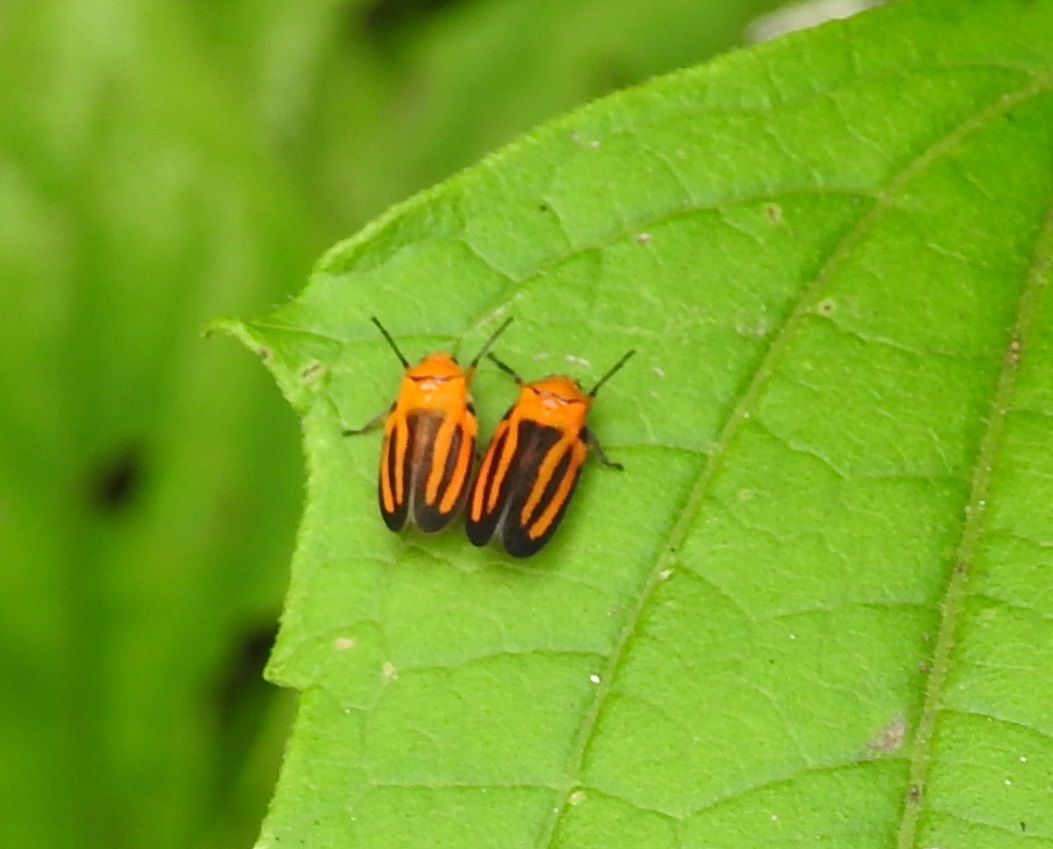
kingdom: Animalia
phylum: Arthropoda
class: Insecta
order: Hemiptera
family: Cercopidae
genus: Ocoaxo
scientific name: Ocoaxo punctus
